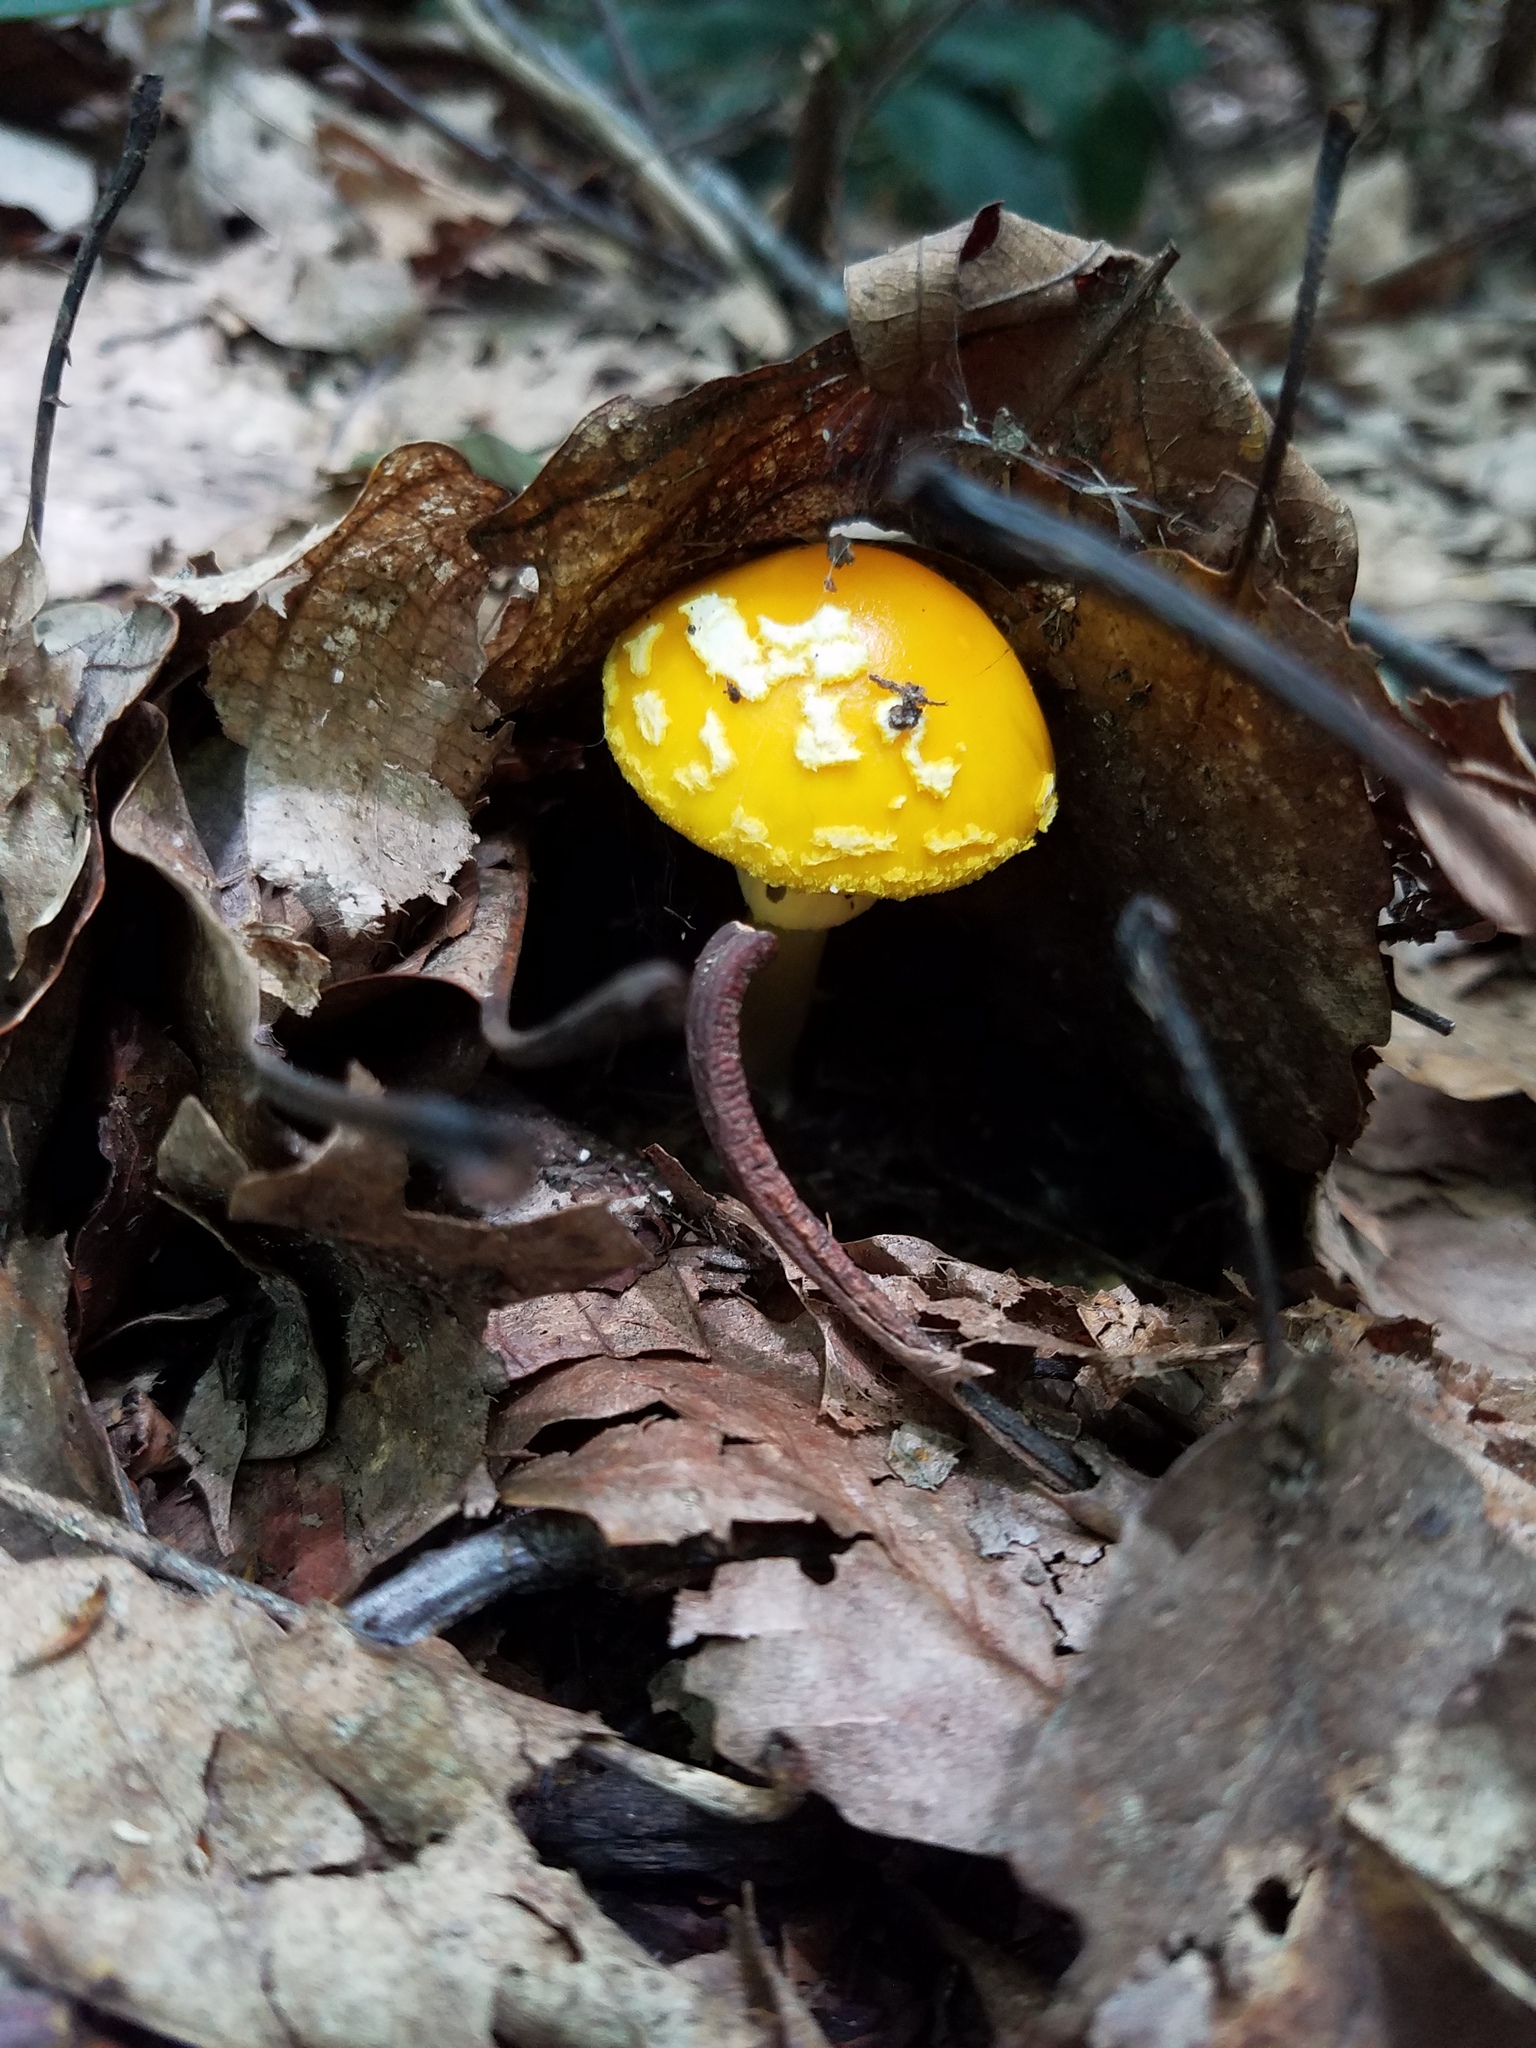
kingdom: Fungi
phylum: Basidiomycota
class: Agaricomycetes
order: Agaricales
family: Amanitaceae
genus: Amanita
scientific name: Amanita flavoconia
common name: Yellow patches
